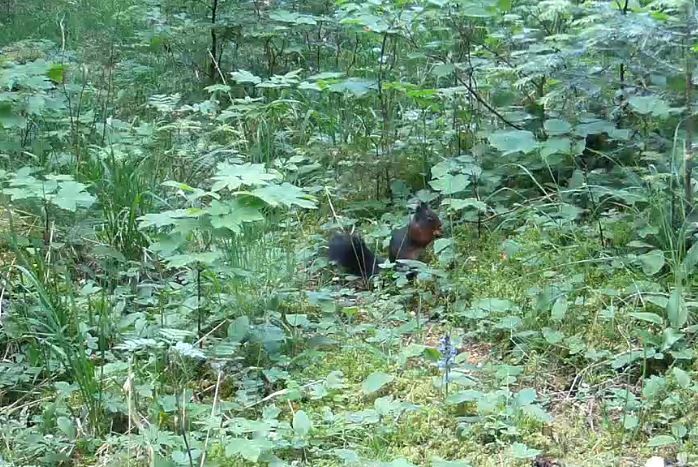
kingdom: Animalia
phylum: Chordata
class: Mammalia
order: Rodentia
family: Sciuridae
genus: Sciurus
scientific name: Sciurus vulgaris
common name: Eurasian red squirrel
